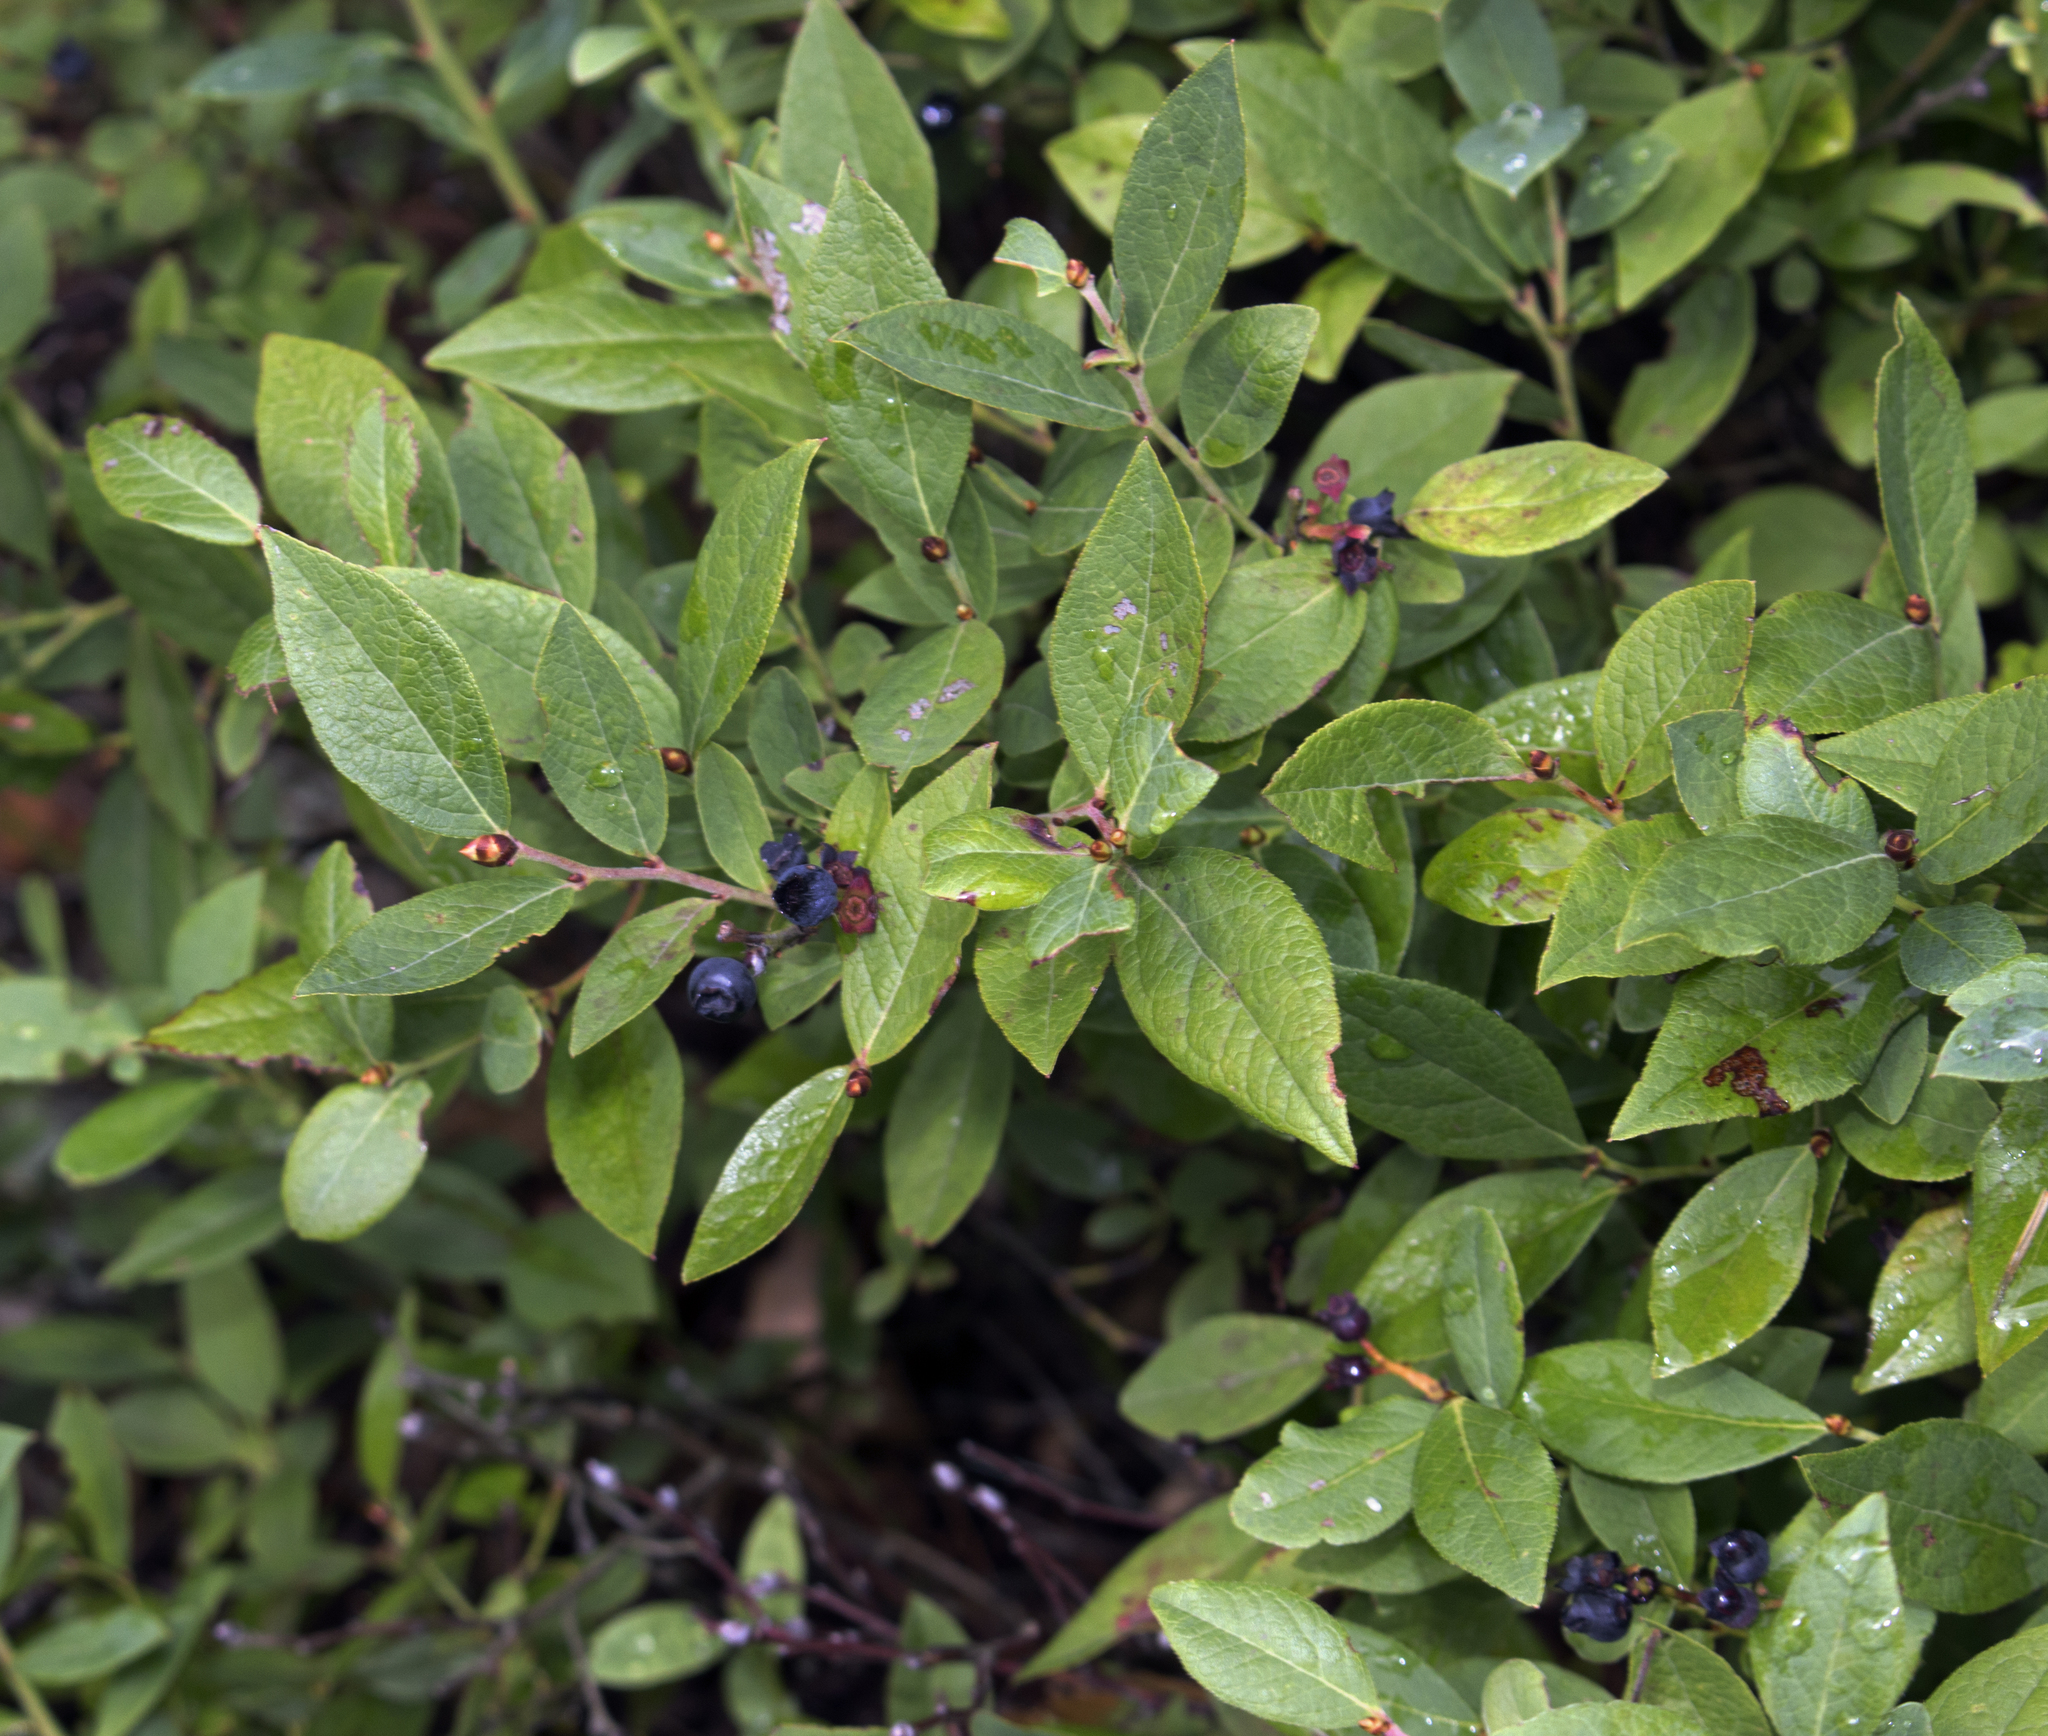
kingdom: Plantae
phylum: Tracheophyta
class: Magnoliopsida
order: Ericales
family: Ericaceae
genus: Vaccinium
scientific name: Vaccinium angustifolium
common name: Early lowbush blueberry
